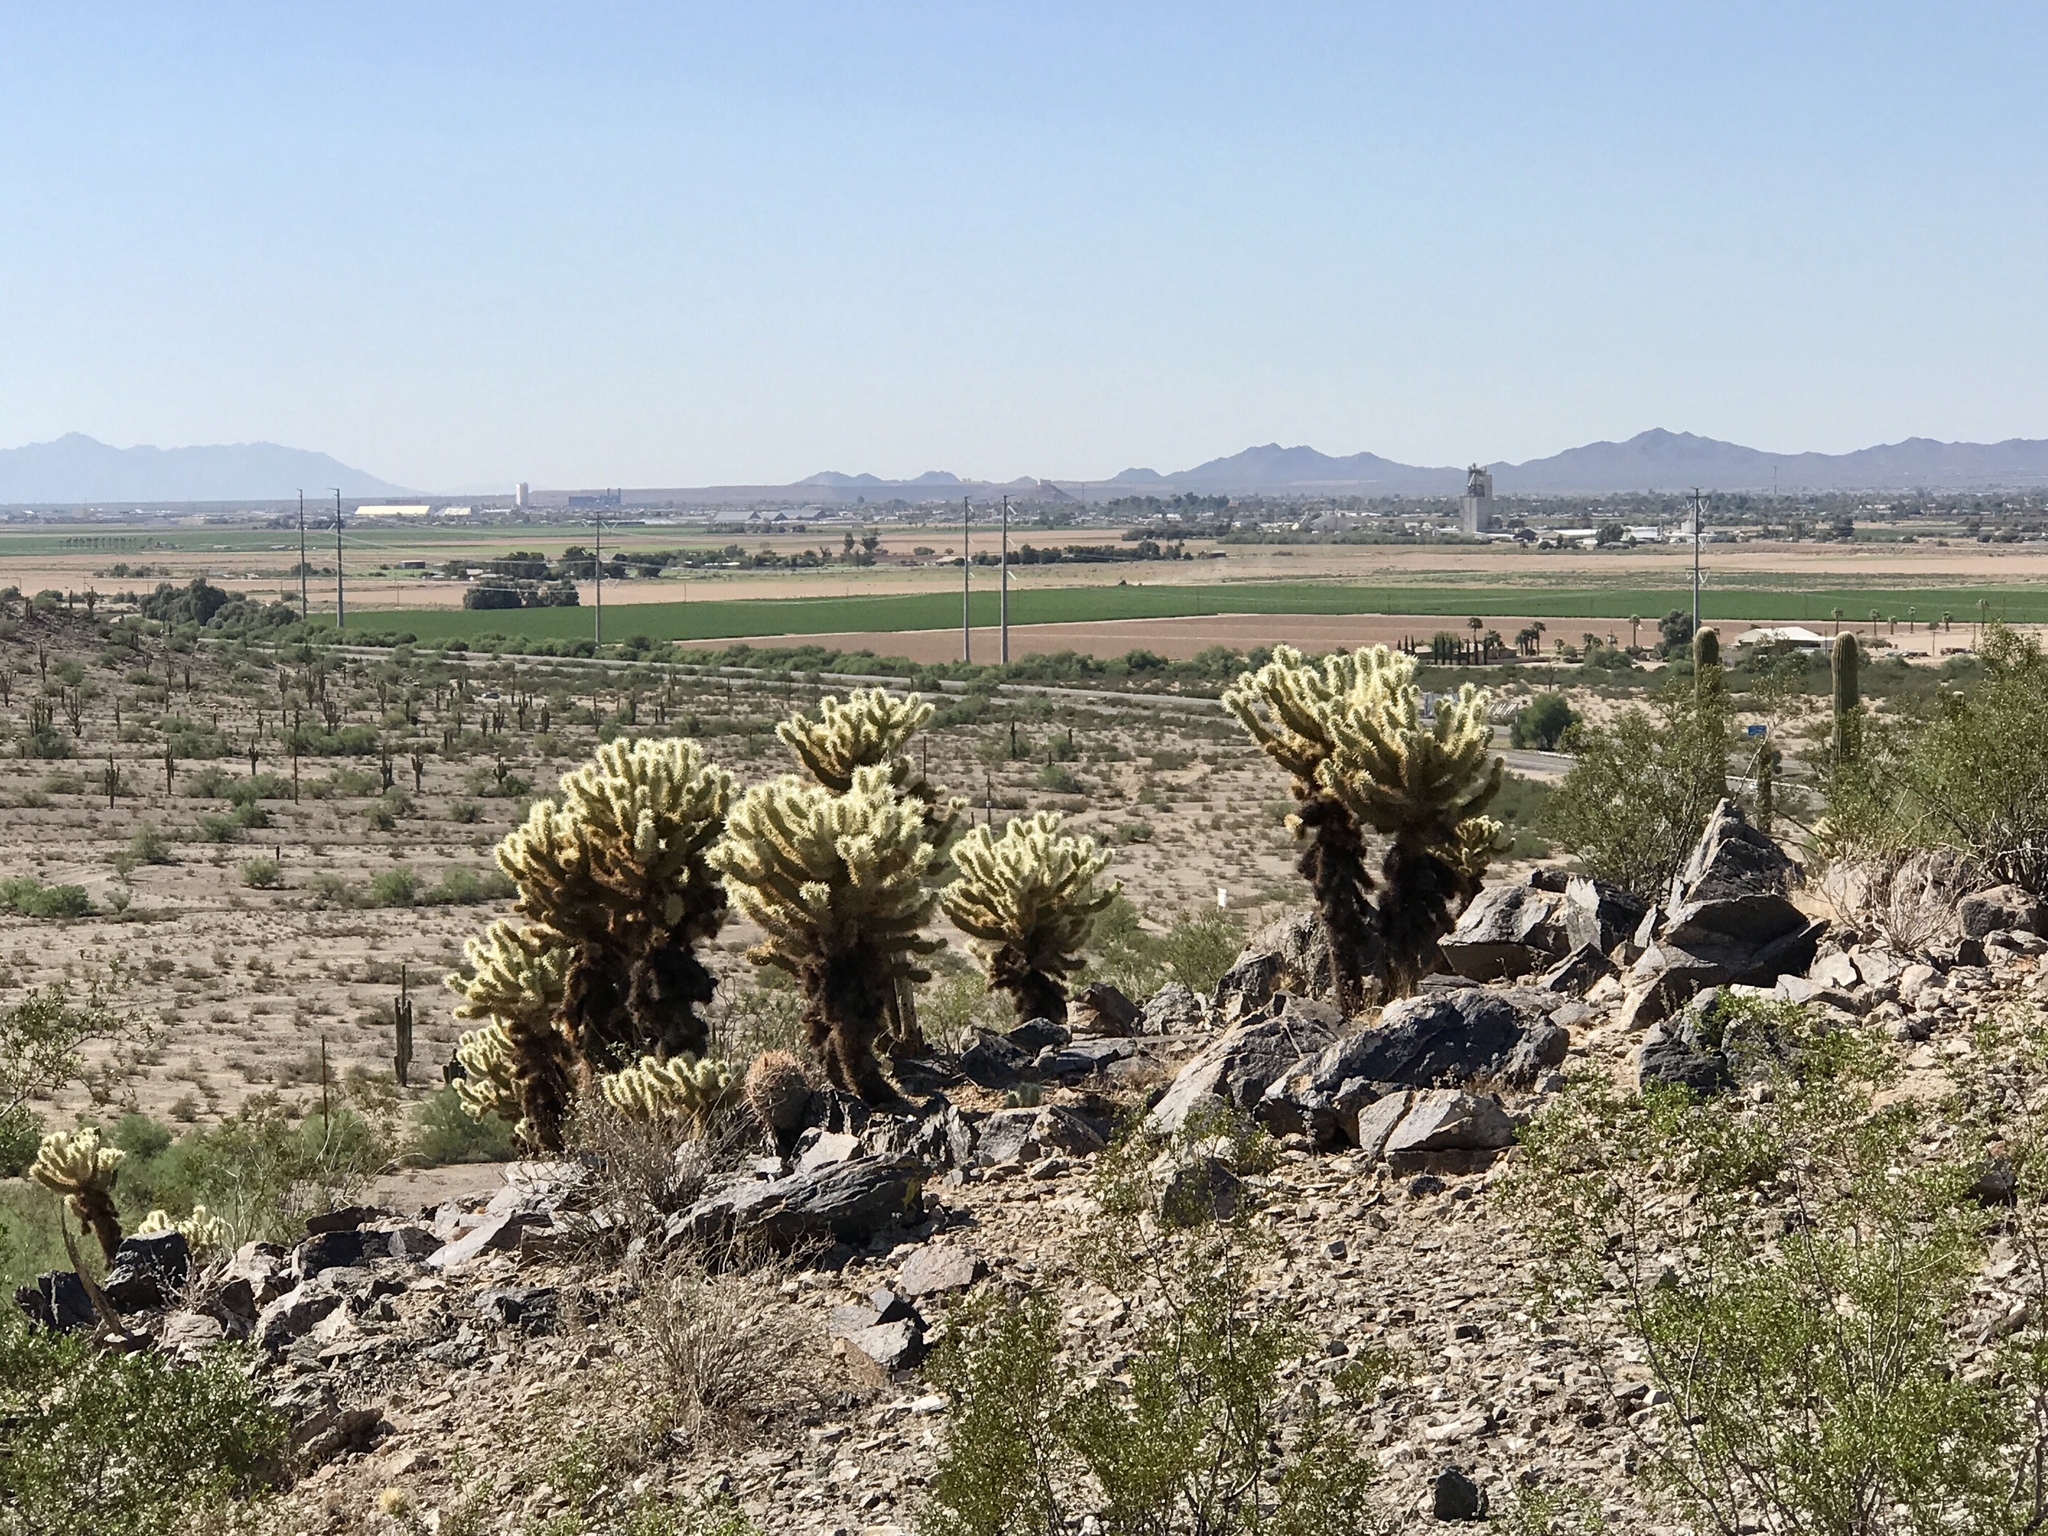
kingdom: Plantae
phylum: Tracheophyta
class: Magnoliopsida
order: Caryophyllales
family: Cactaceae
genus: Cylindropuntia
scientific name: Cylindropuntia fosbergii
